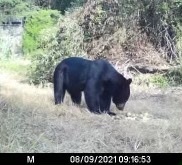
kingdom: Animalia
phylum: Chordata
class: Mammalia
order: Carnivora
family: Ursidae
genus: Ursus
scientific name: Ursus americanus
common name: American black bear
